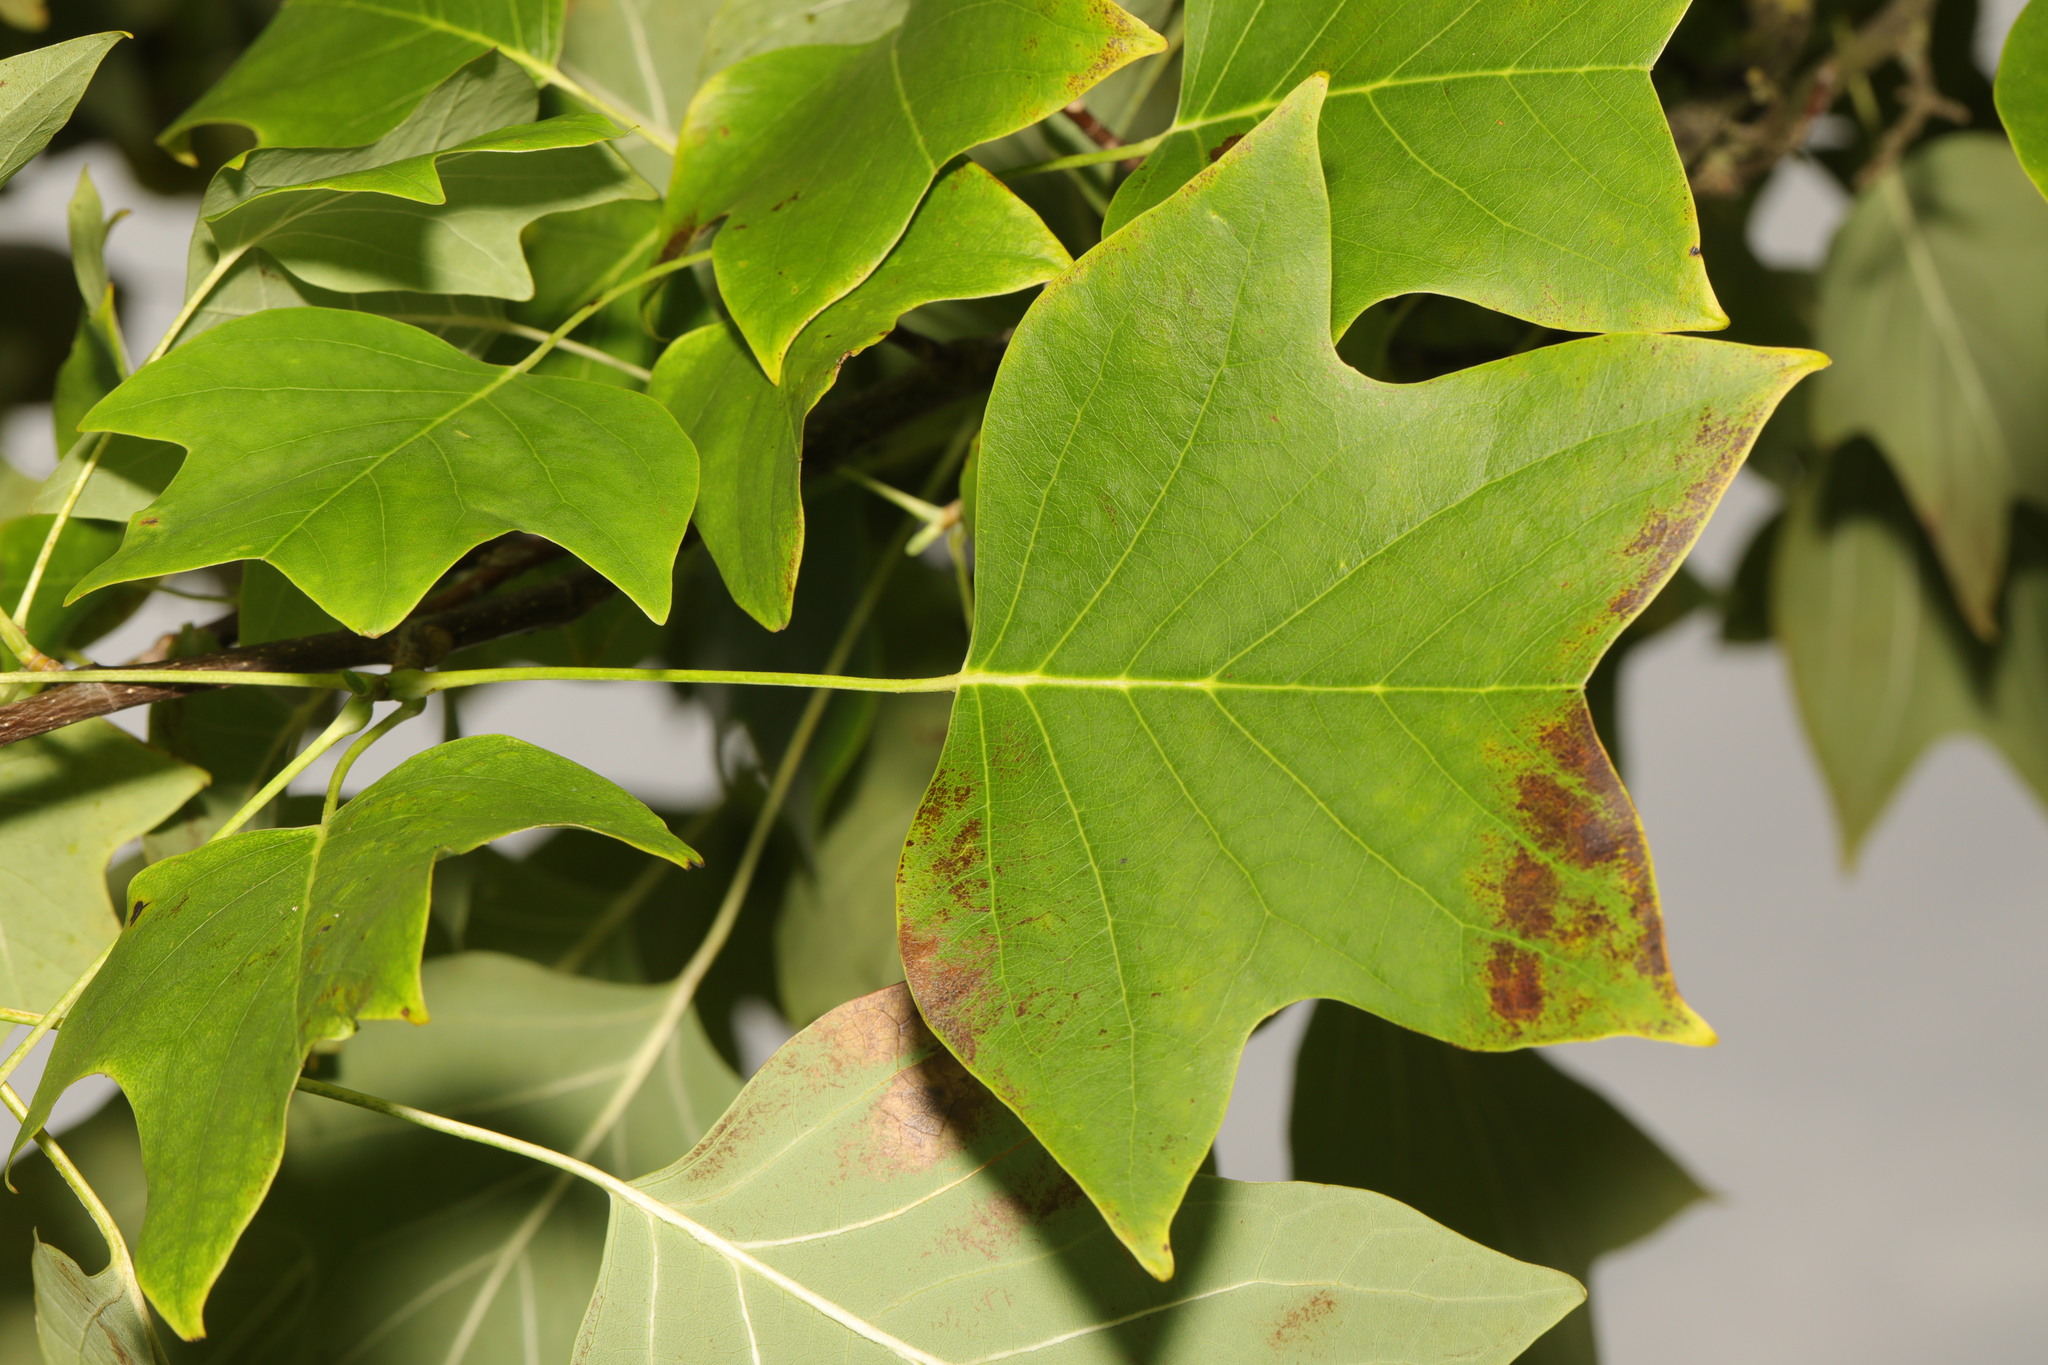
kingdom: Plantae
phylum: Tracheophyta
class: Magnoliopsida
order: Magnoliales
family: Magnoliaceae
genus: Liriodendron
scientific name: Liriodendron tulipifera
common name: Tulip tree
